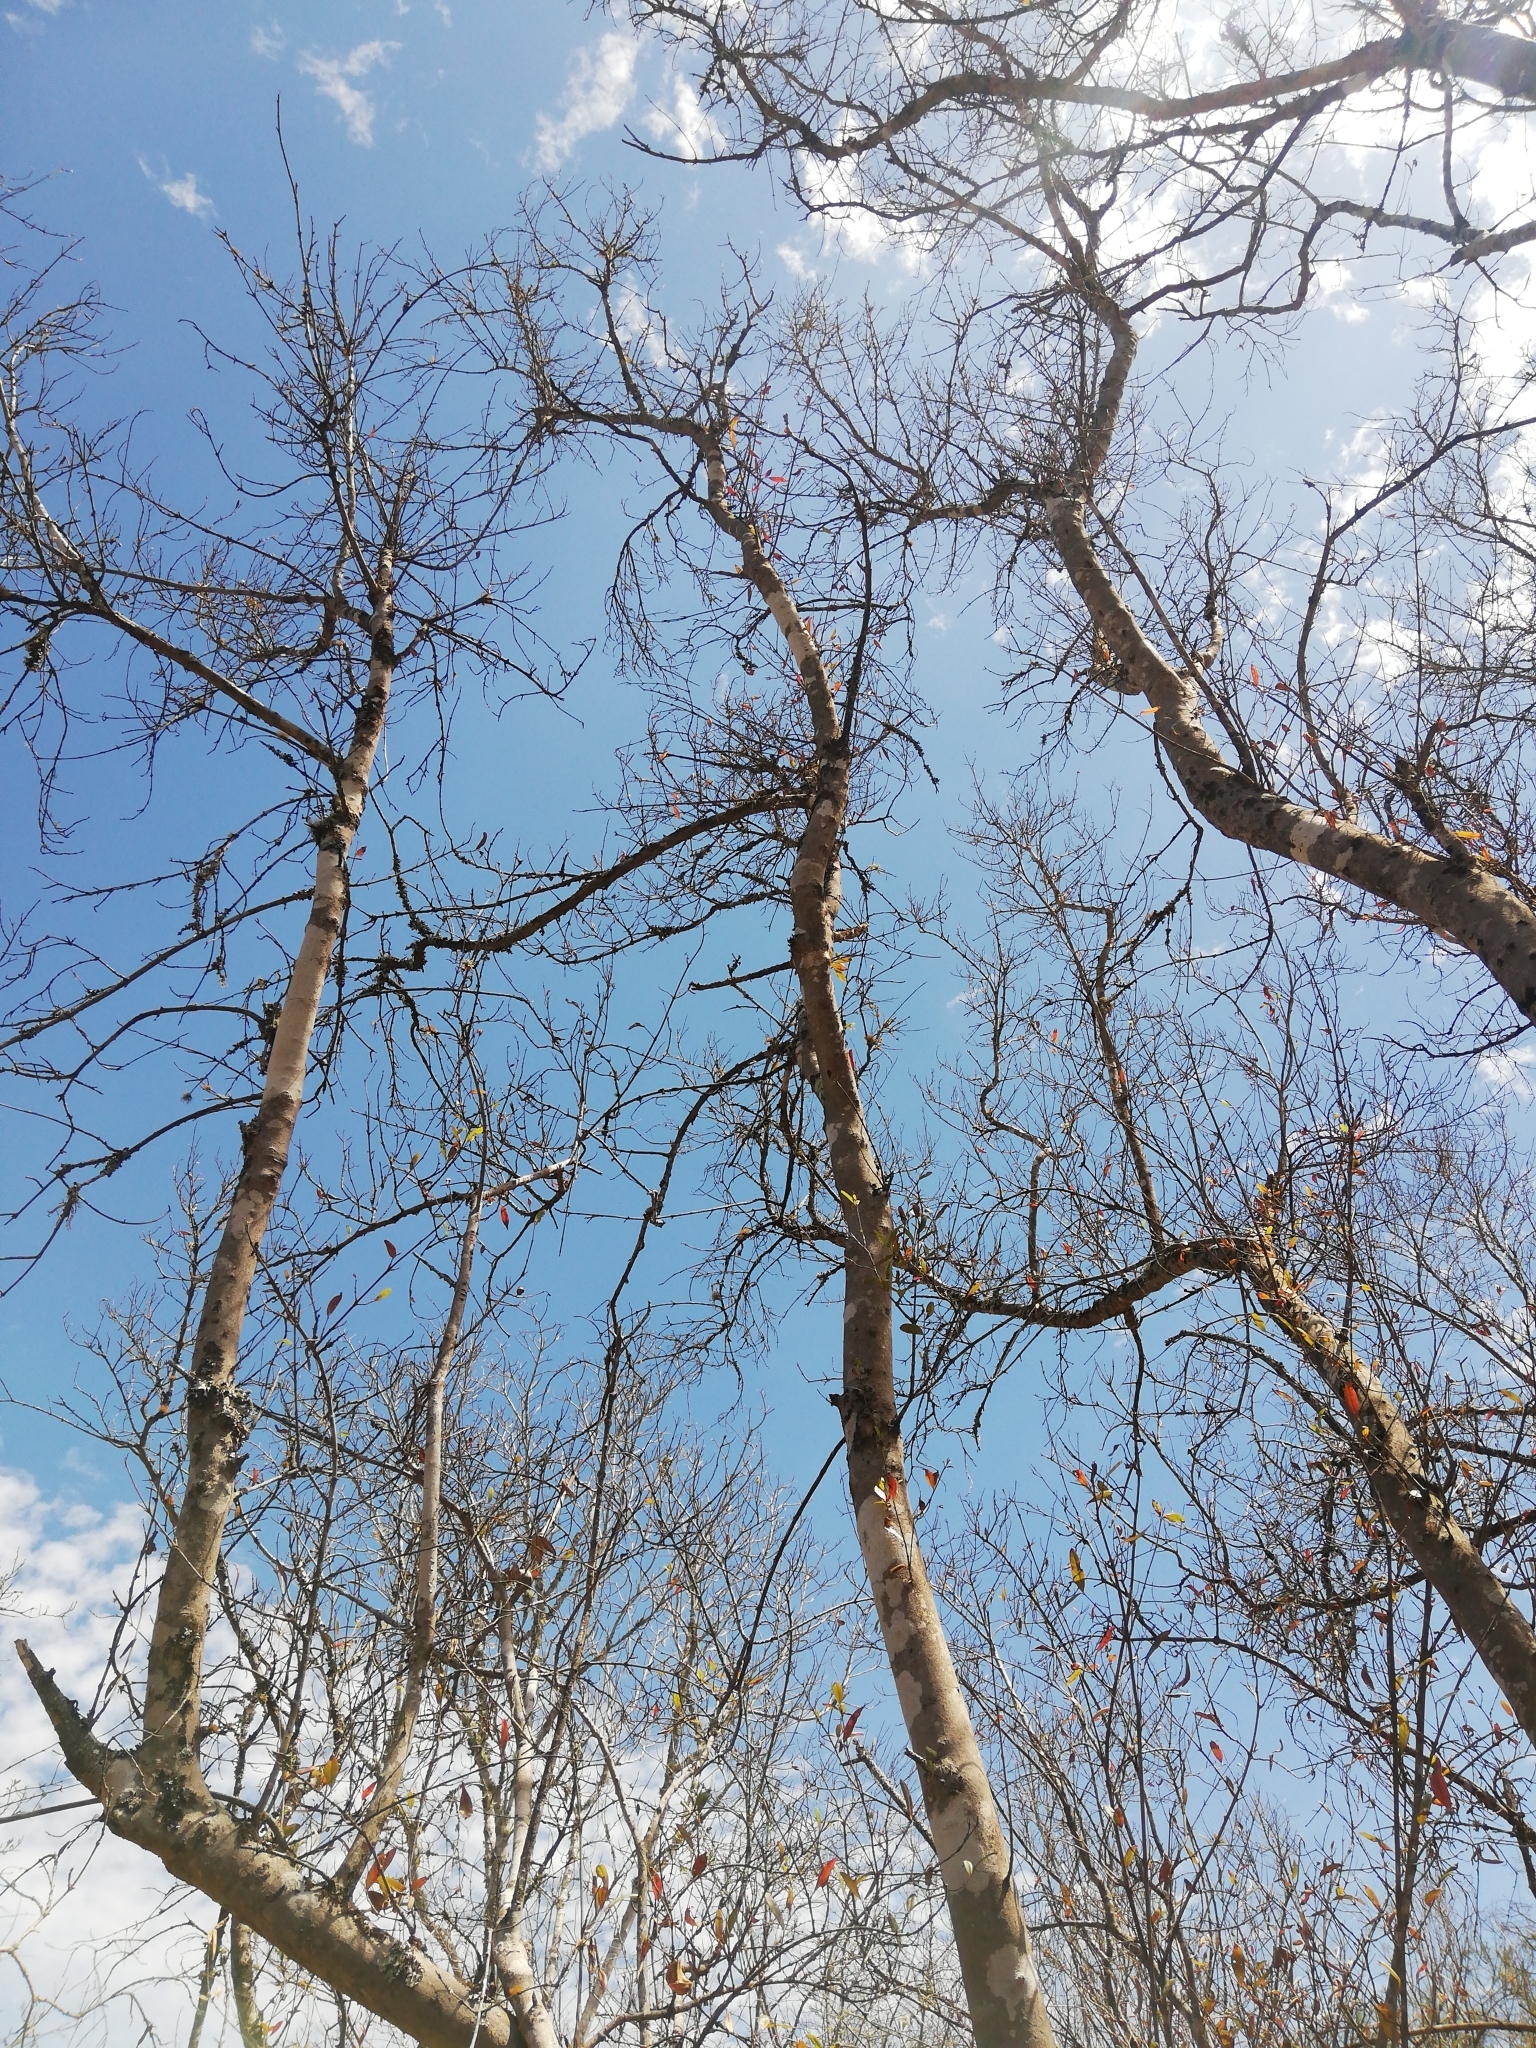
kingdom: Plantae
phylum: Tracheophyta
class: Magnoliopsida
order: Myrtales
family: Combretaceae
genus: Combretum
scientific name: Combretum caffrum
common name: Cape bushwillow
